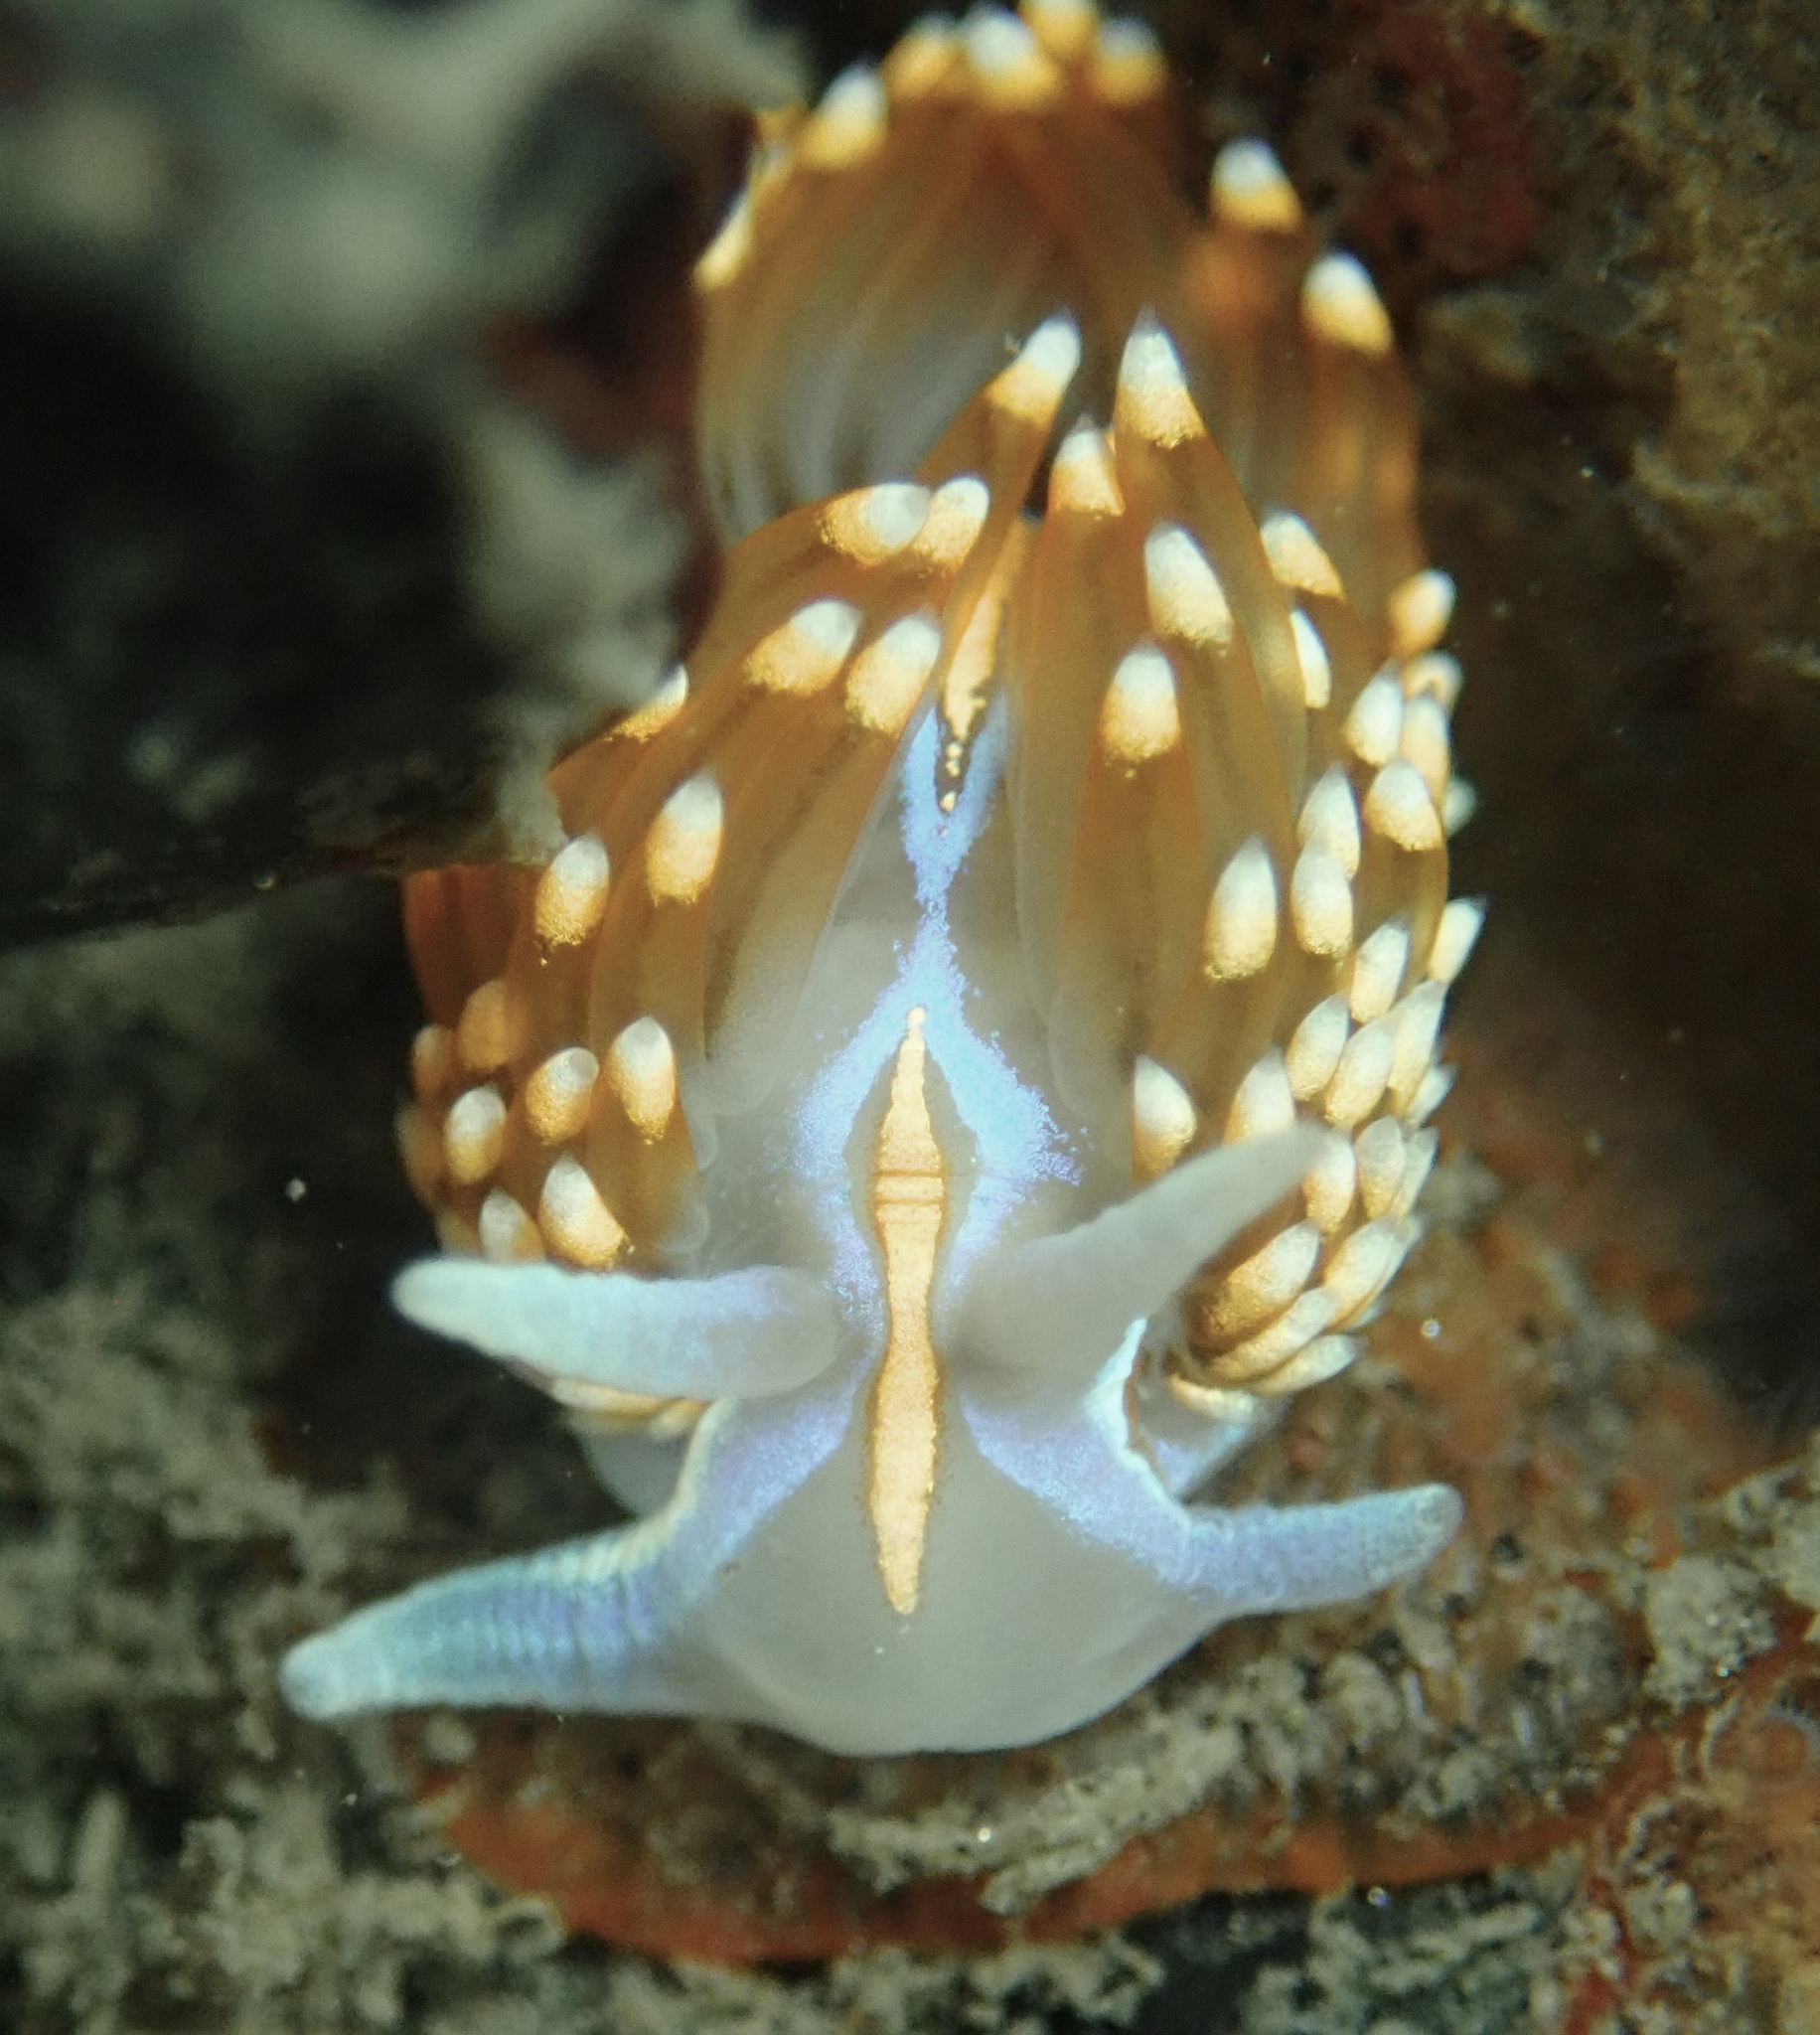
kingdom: Animalia
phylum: Mollusca
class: Gastropoda
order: Nudibranchia
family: Myrrhinidae
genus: Hermissenda
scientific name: Hermissenda opalescens
